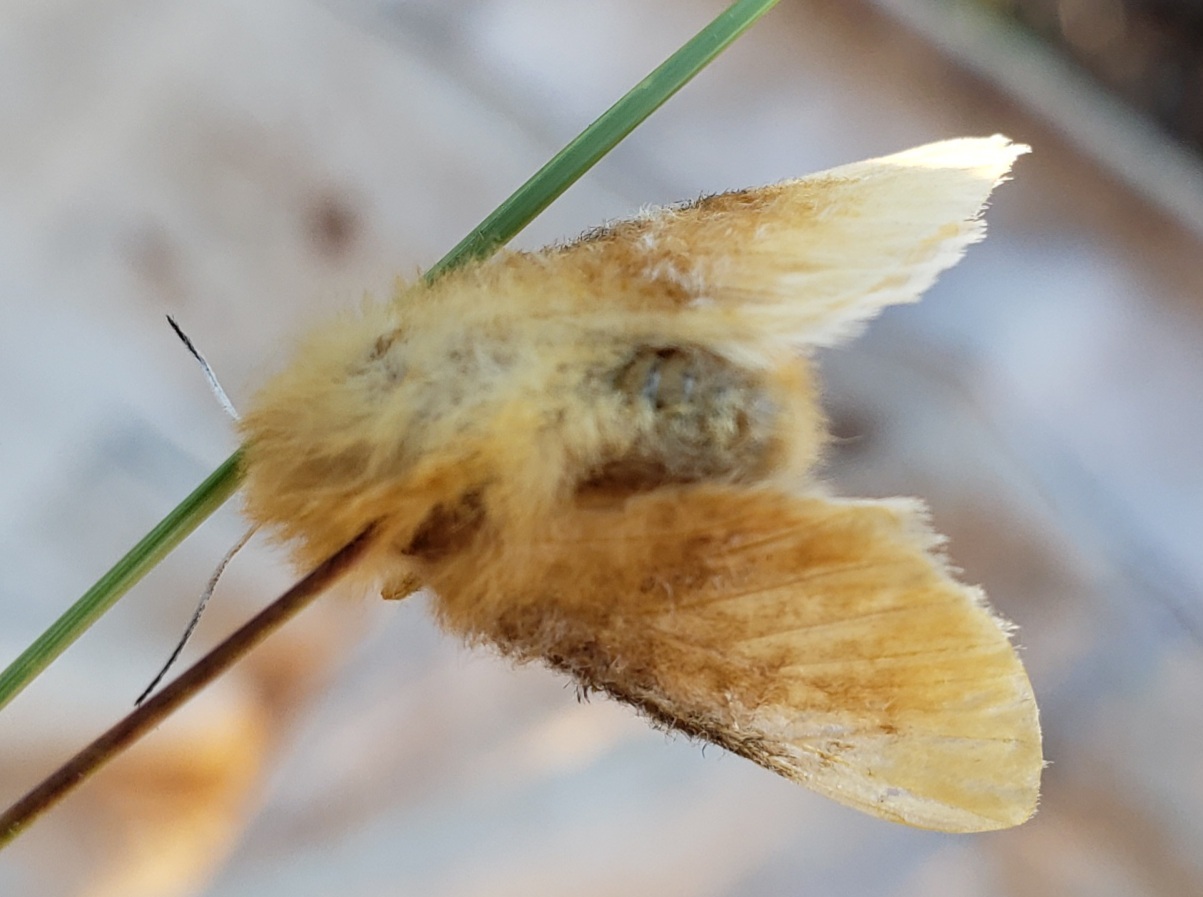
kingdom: Animalia
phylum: Arthropoda
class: Insecta
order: Lepidoptera
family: Megalopygidae
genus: Megalopyge
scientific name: Megalopyge opercularis
